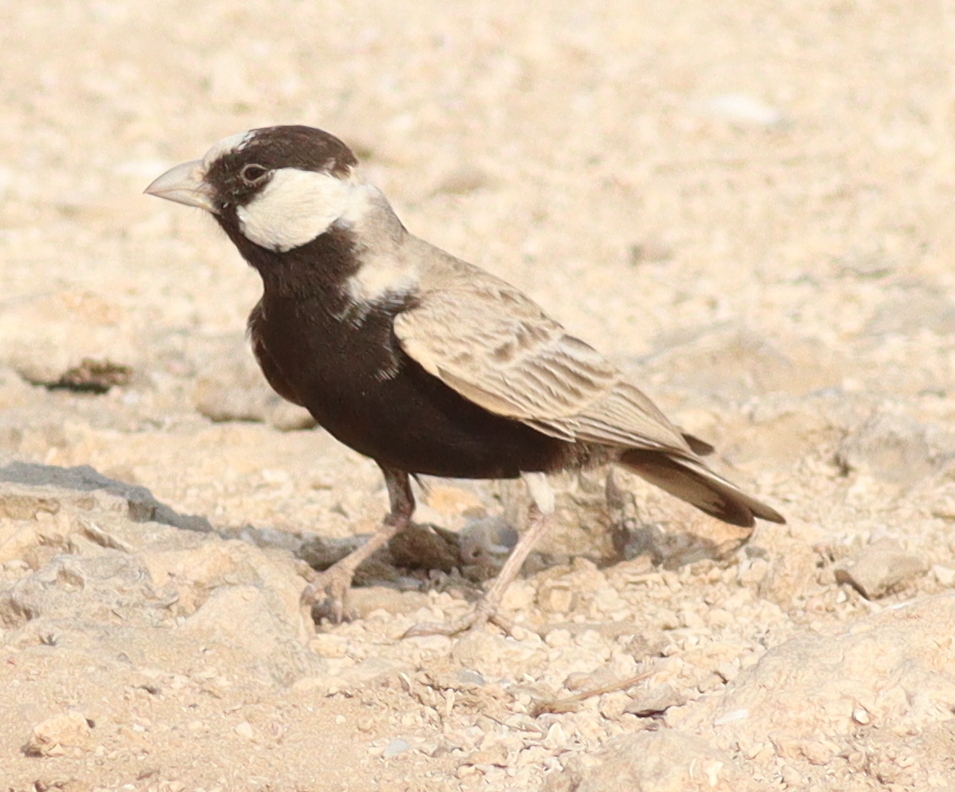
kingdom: Animalia
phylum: Chordata
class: Aves
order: Passeriformes
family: Alaudidae
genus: Eremopterix
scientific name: Eremopterix nigriceps
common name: Black-crowned sparrow-lark
